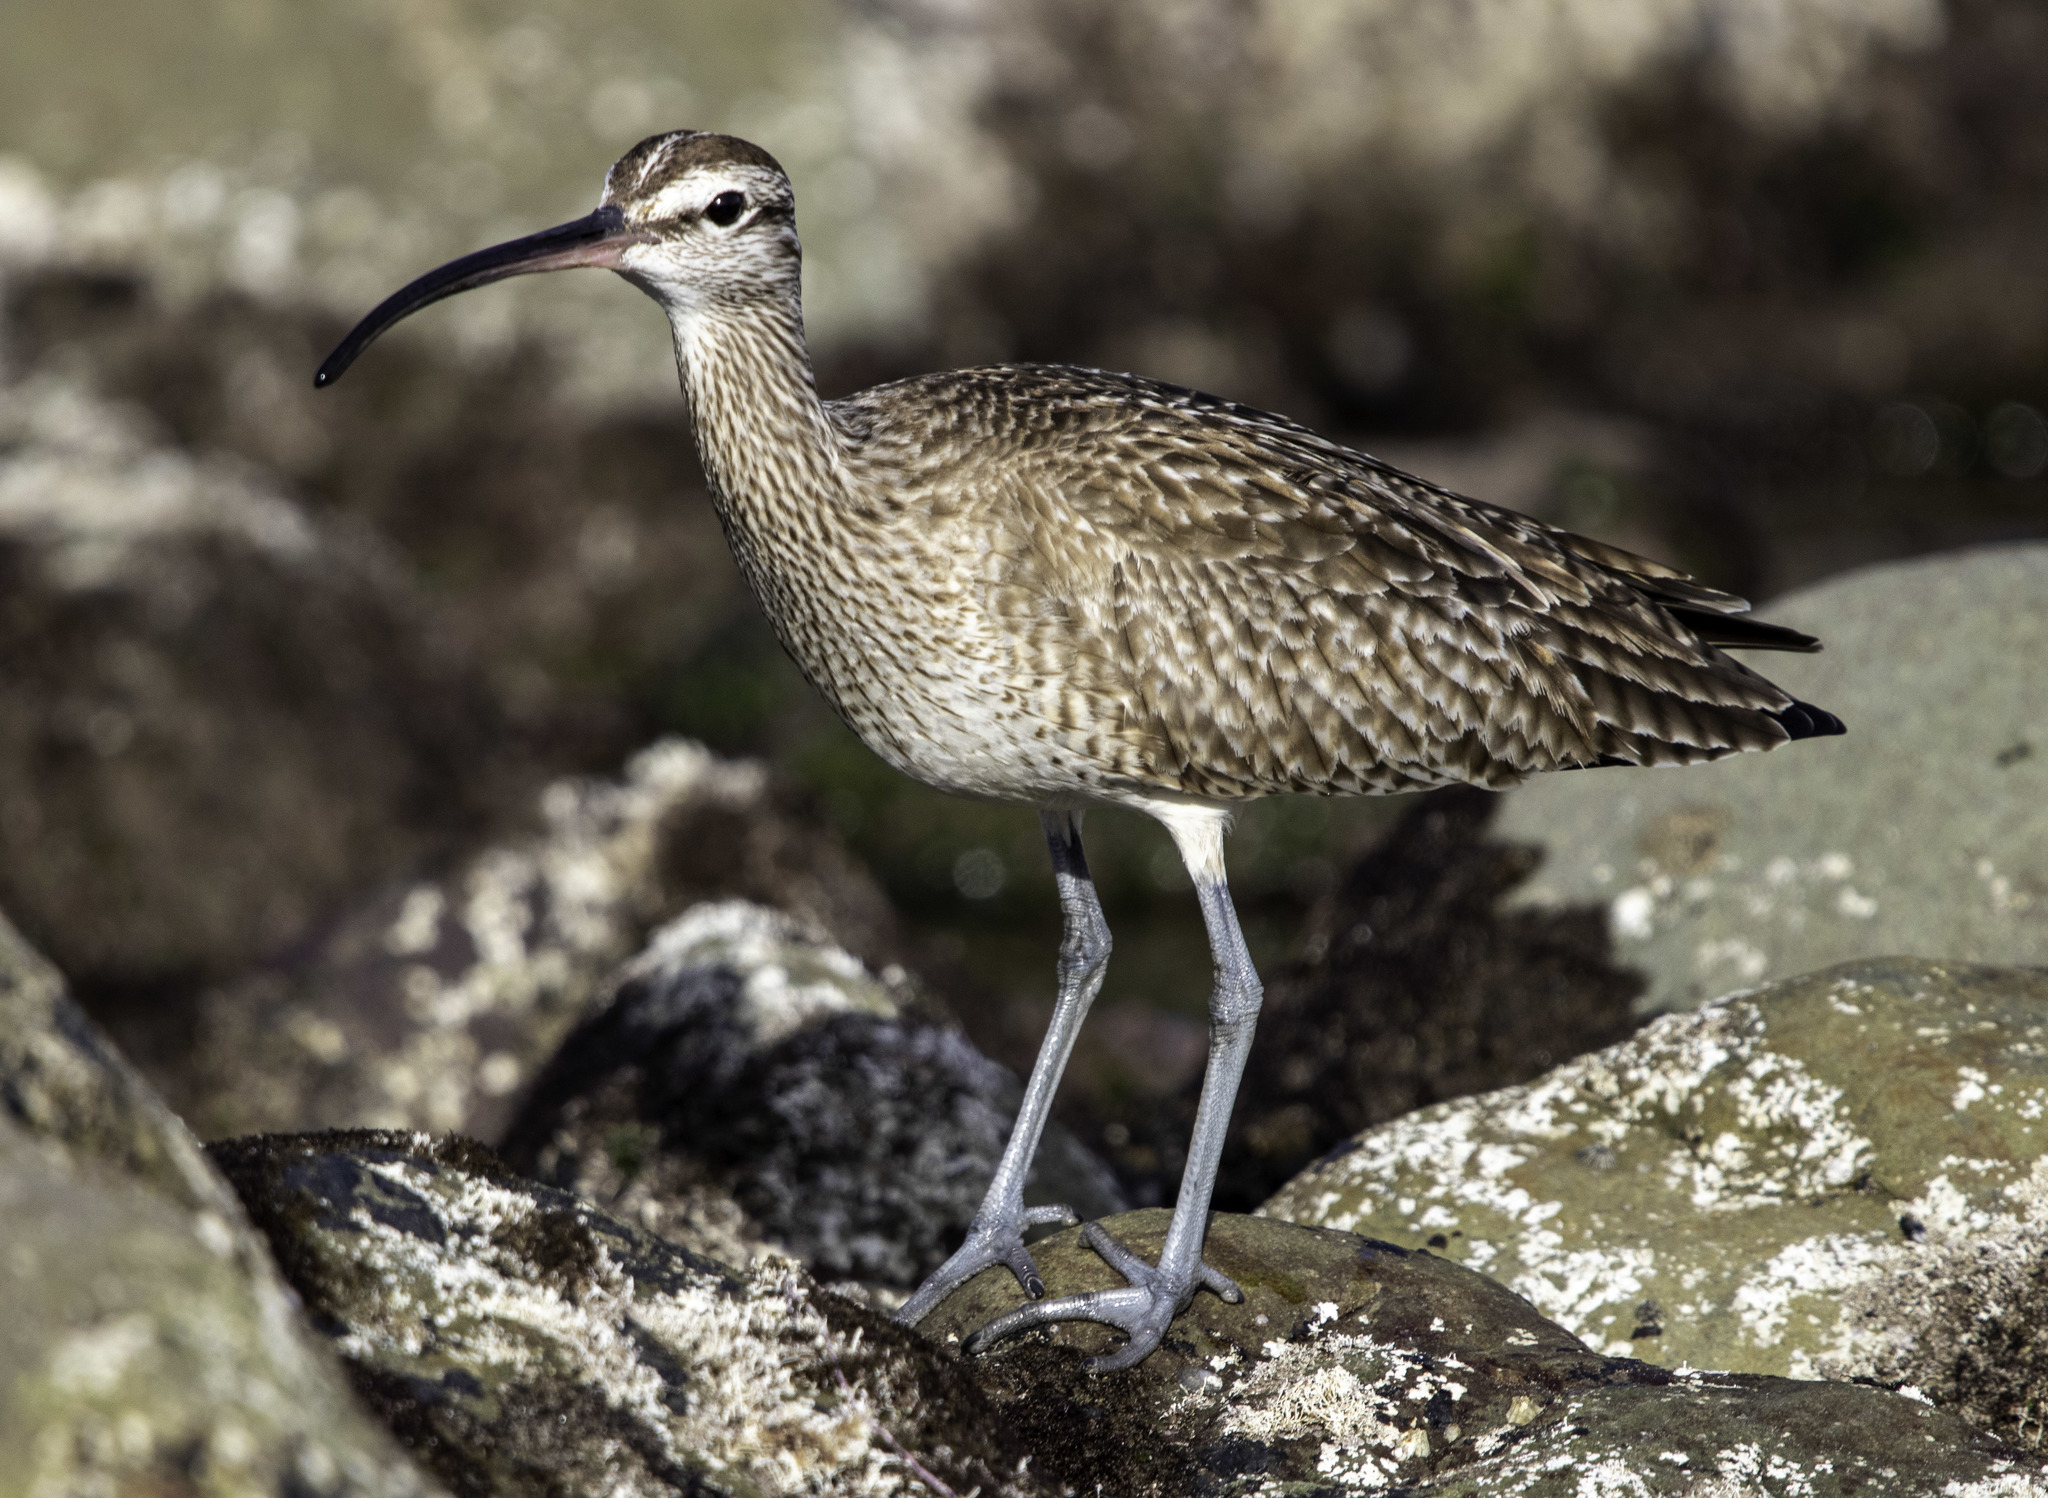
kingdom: Animalia
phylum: Chordata
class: Aves
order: Charadriiformes
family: Scolopacidae
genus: Numenius
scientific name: Numenius phaeopus
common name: Whimbrel
